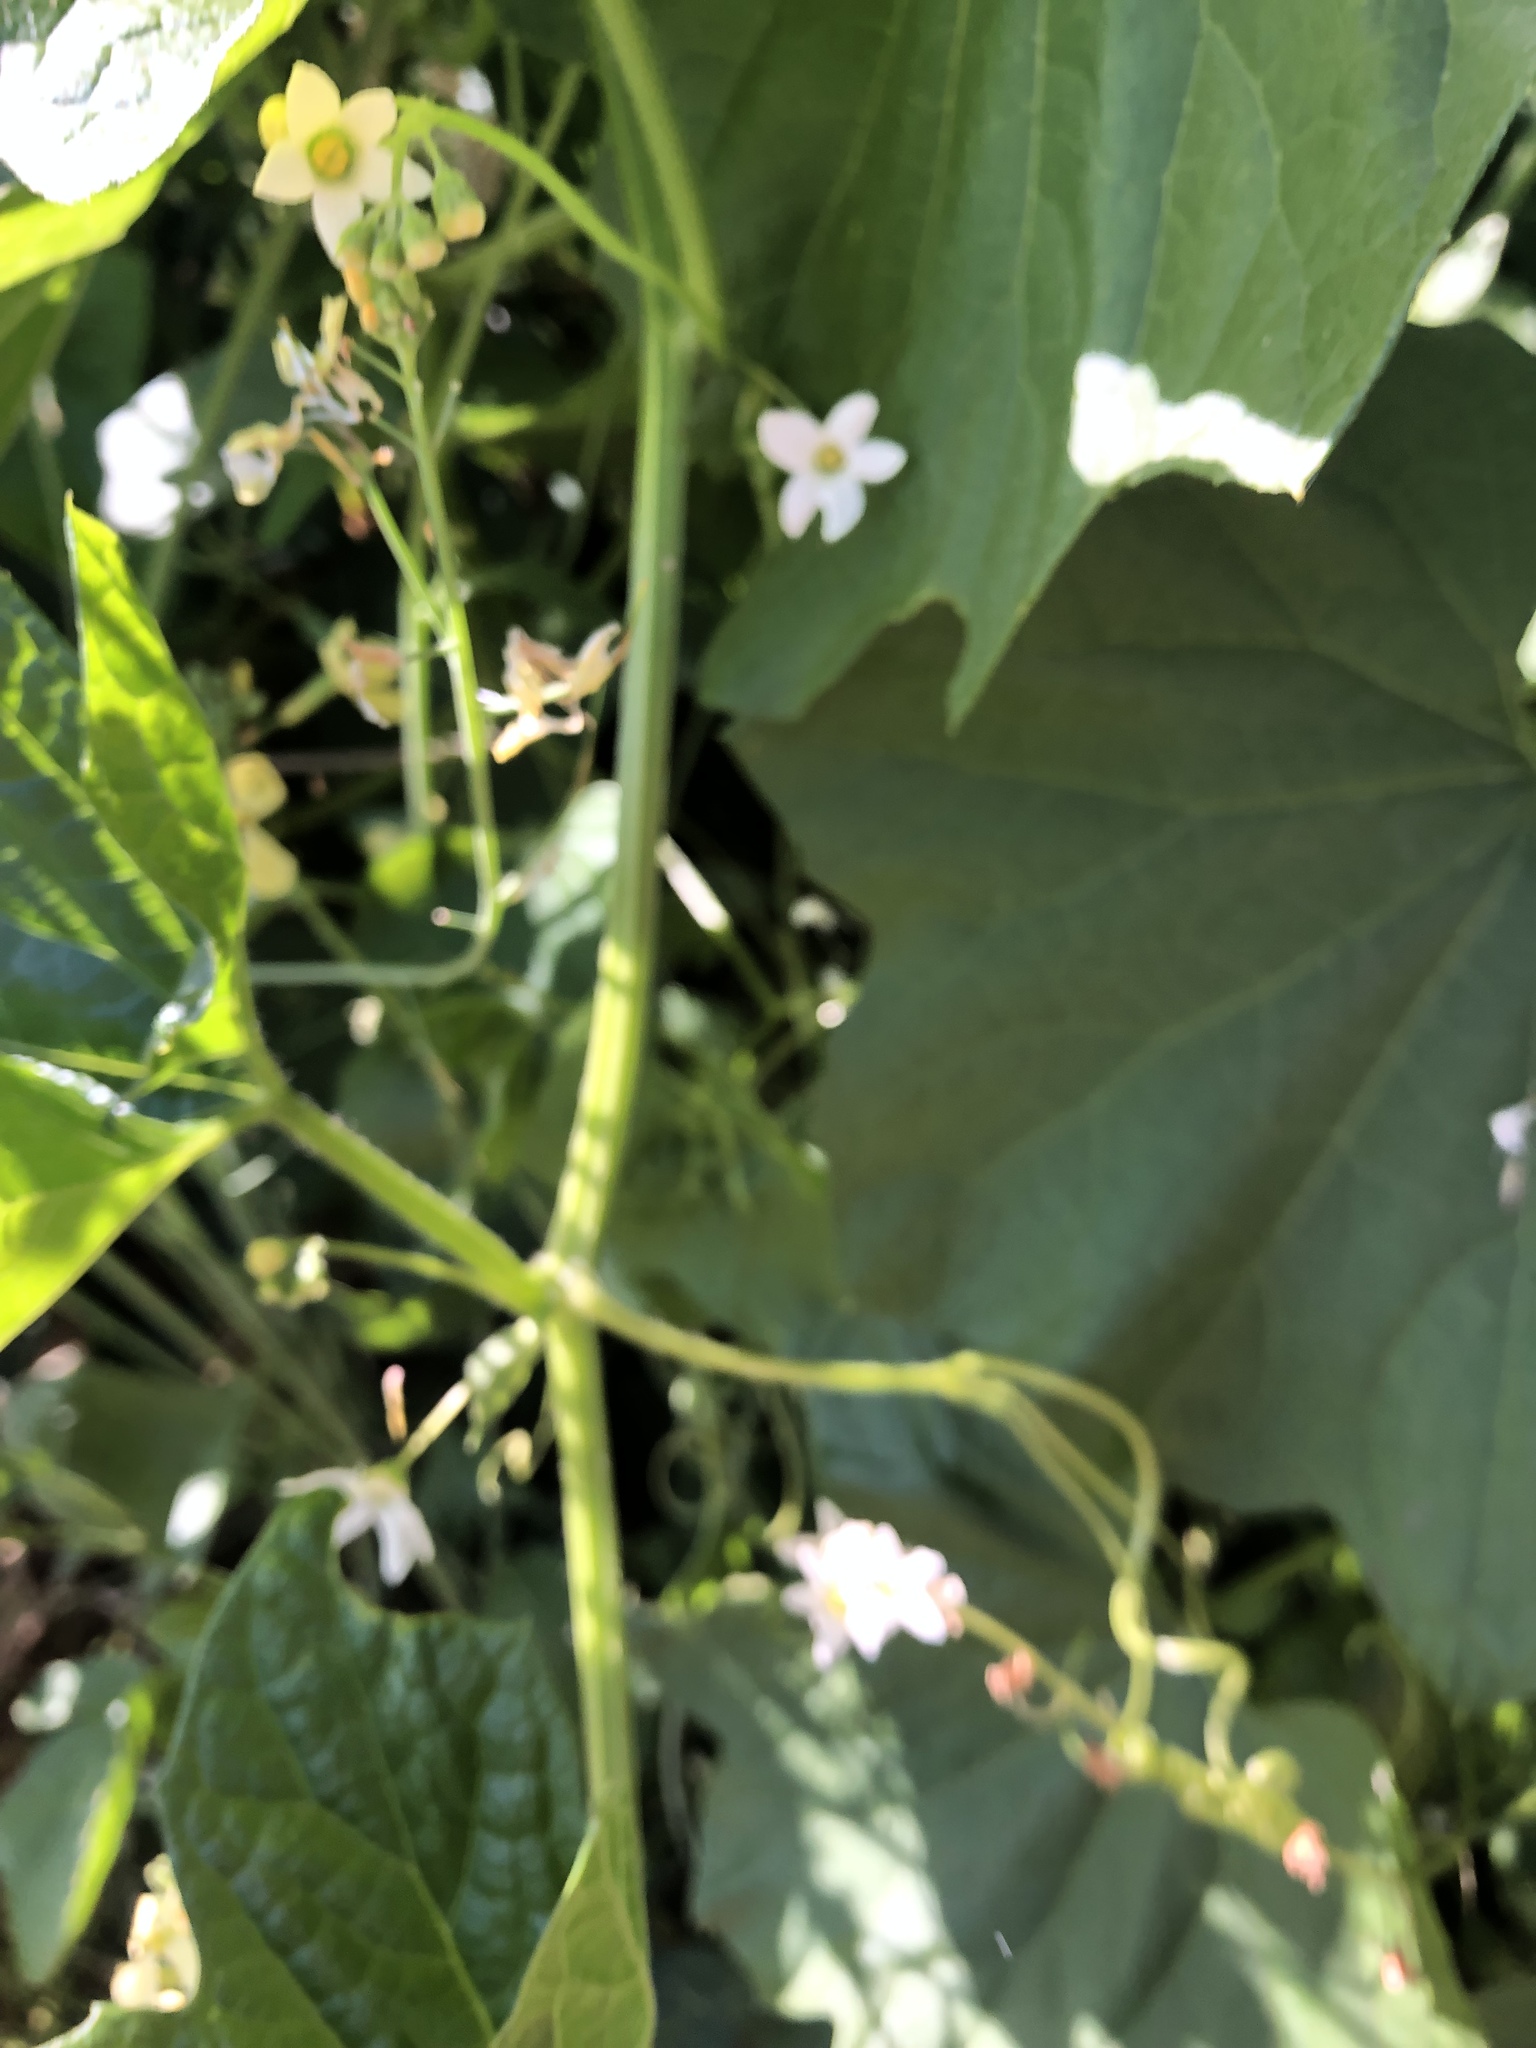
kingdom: Plantae
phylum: Tracheophyta
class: Magnoliopsida
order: Cucurbitales
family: Cucurbitaceae
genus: Marah
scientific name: Marah oregana
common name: Coastal manroot
